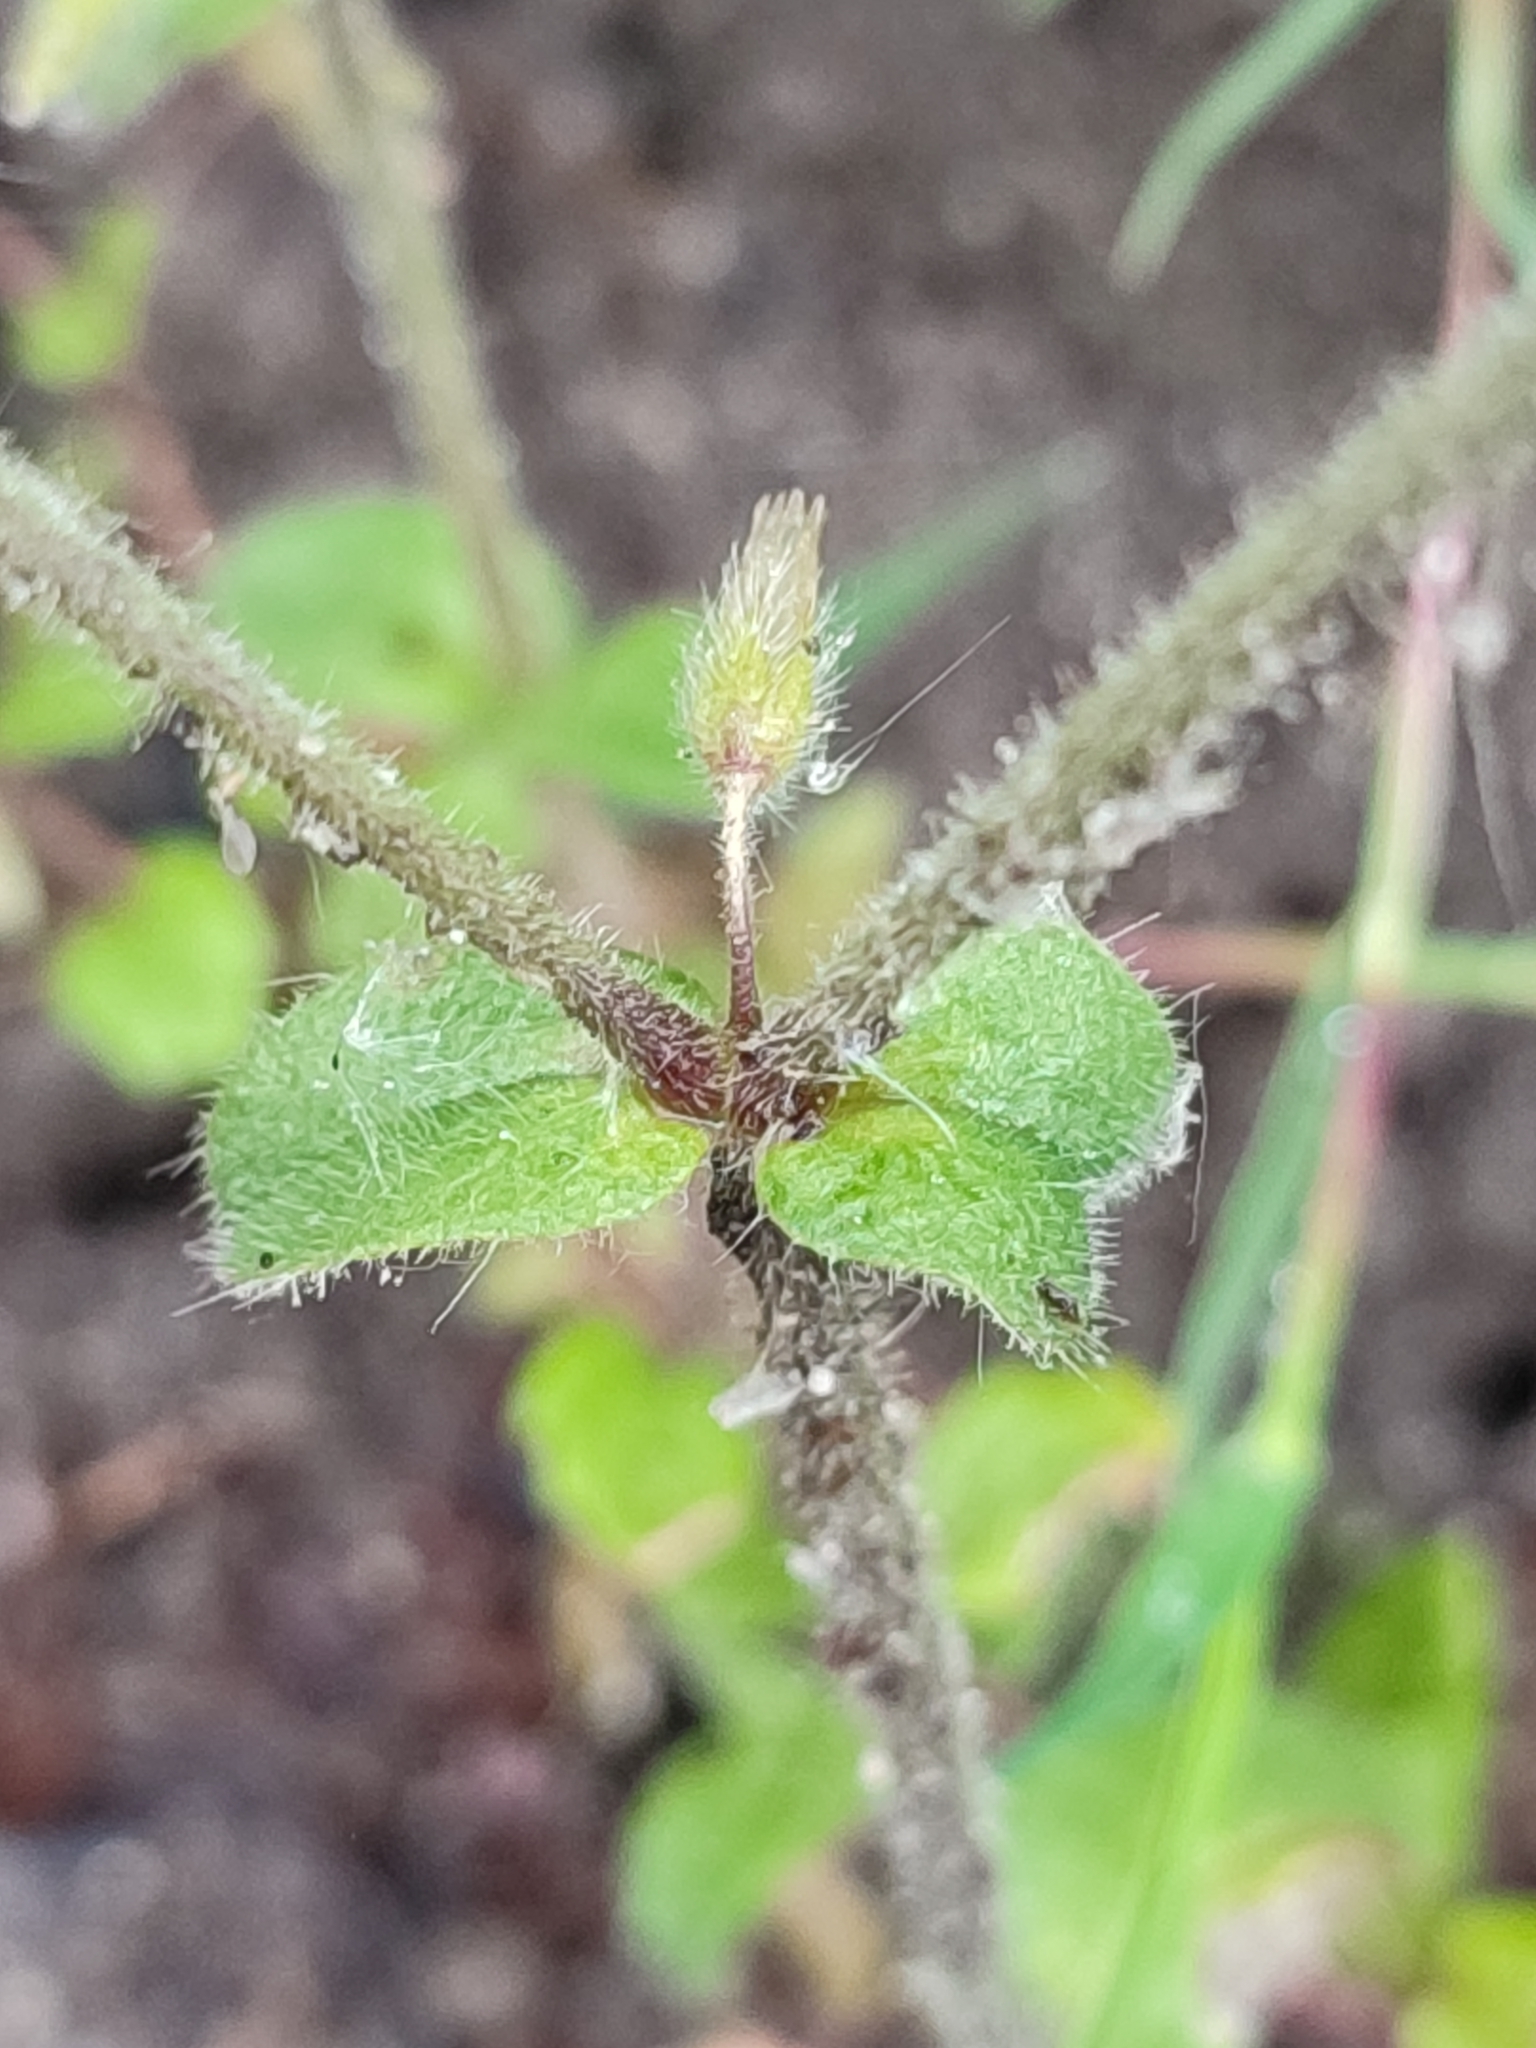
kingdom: Plantae
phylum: Tracheophyta
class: Magnoliopsida
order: Caryophyllales
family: Caryophyllaceae
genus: Cerastium
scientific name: Cerastium glomeratum
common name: Sticky chickweed
